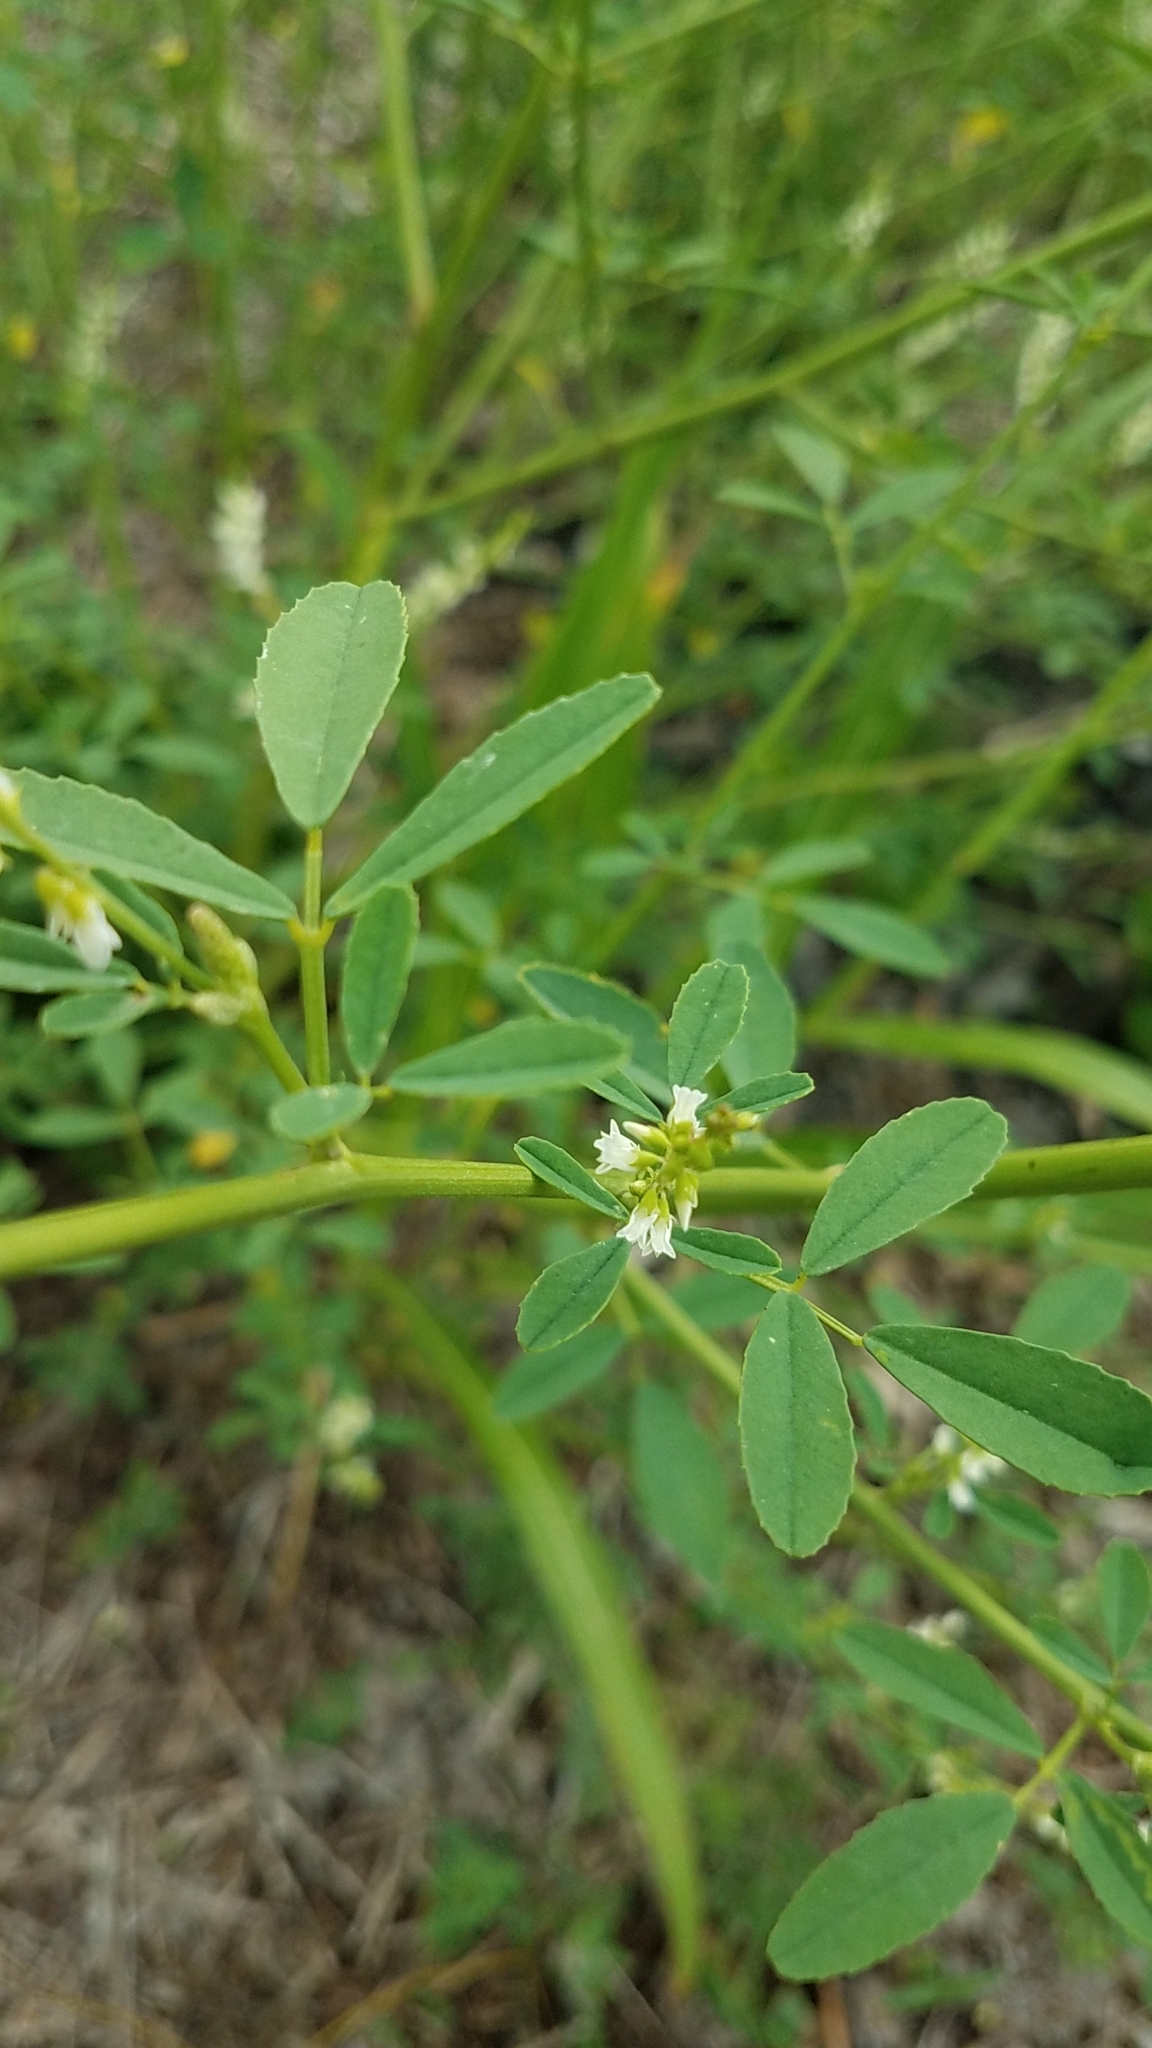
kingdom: Plantae
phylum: Tracheophyta
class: Magnoliopsida
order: Fabales
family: Fabaceae
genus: Melilotus
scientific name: Melilotus albus
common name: White melilot
